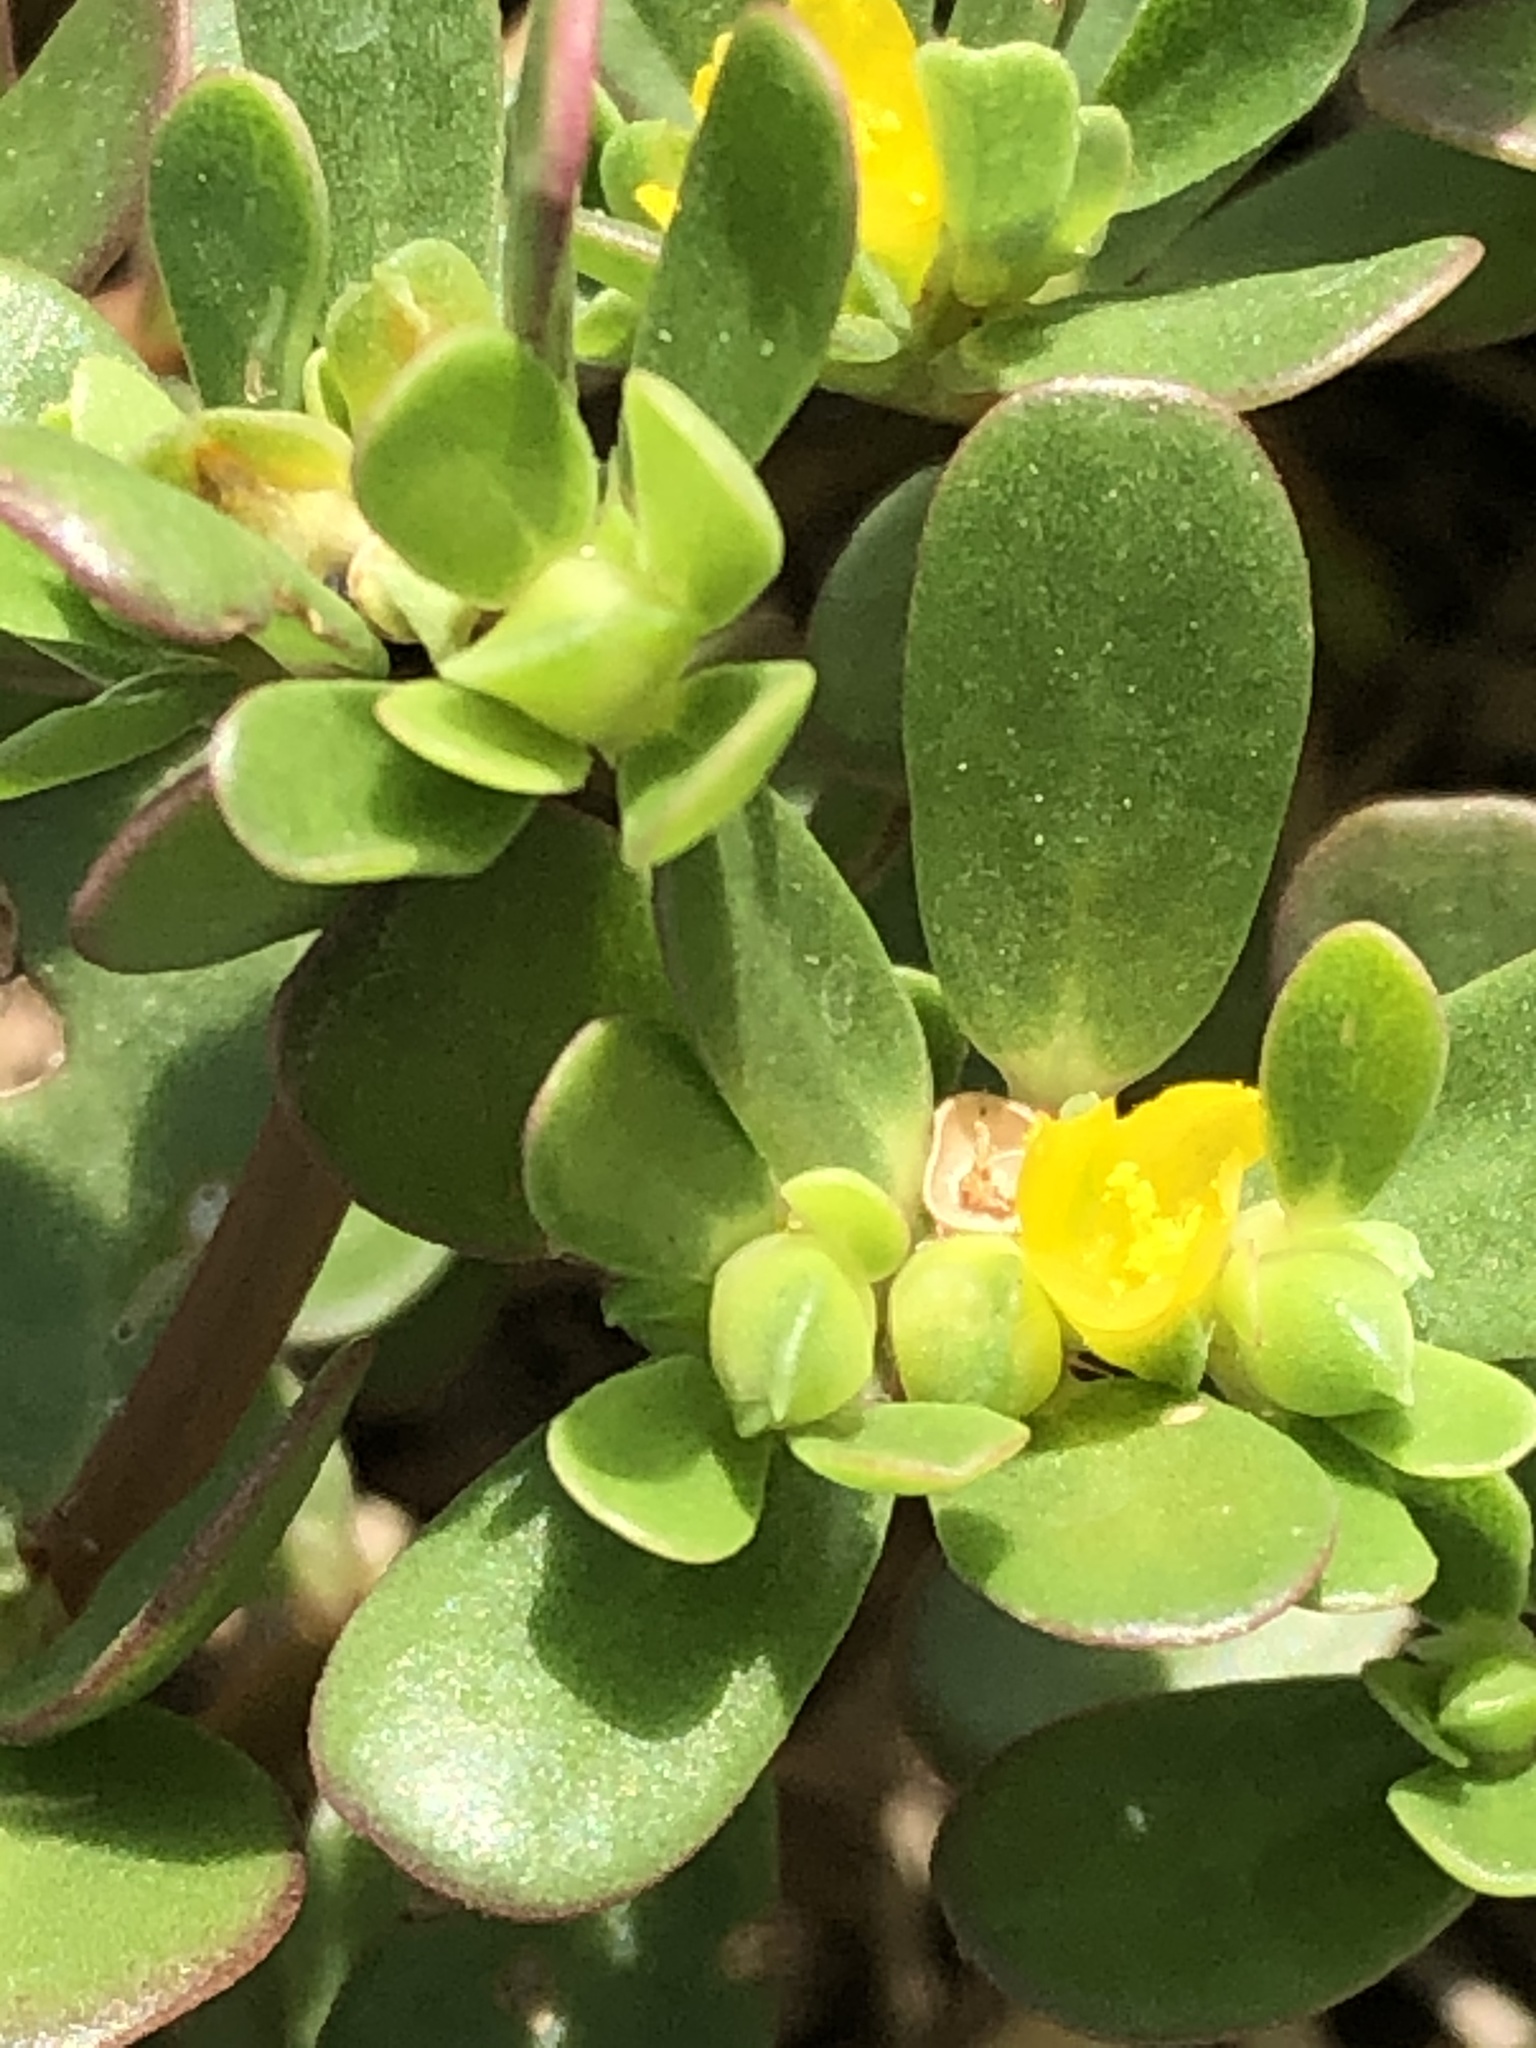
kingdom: Plantae
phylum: Tracheophyta
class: Magnoliopsida
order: Caryophyllales
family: Portulacaceae
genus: Portulaca
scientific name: Portulaca oleracea
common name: Common purslane
